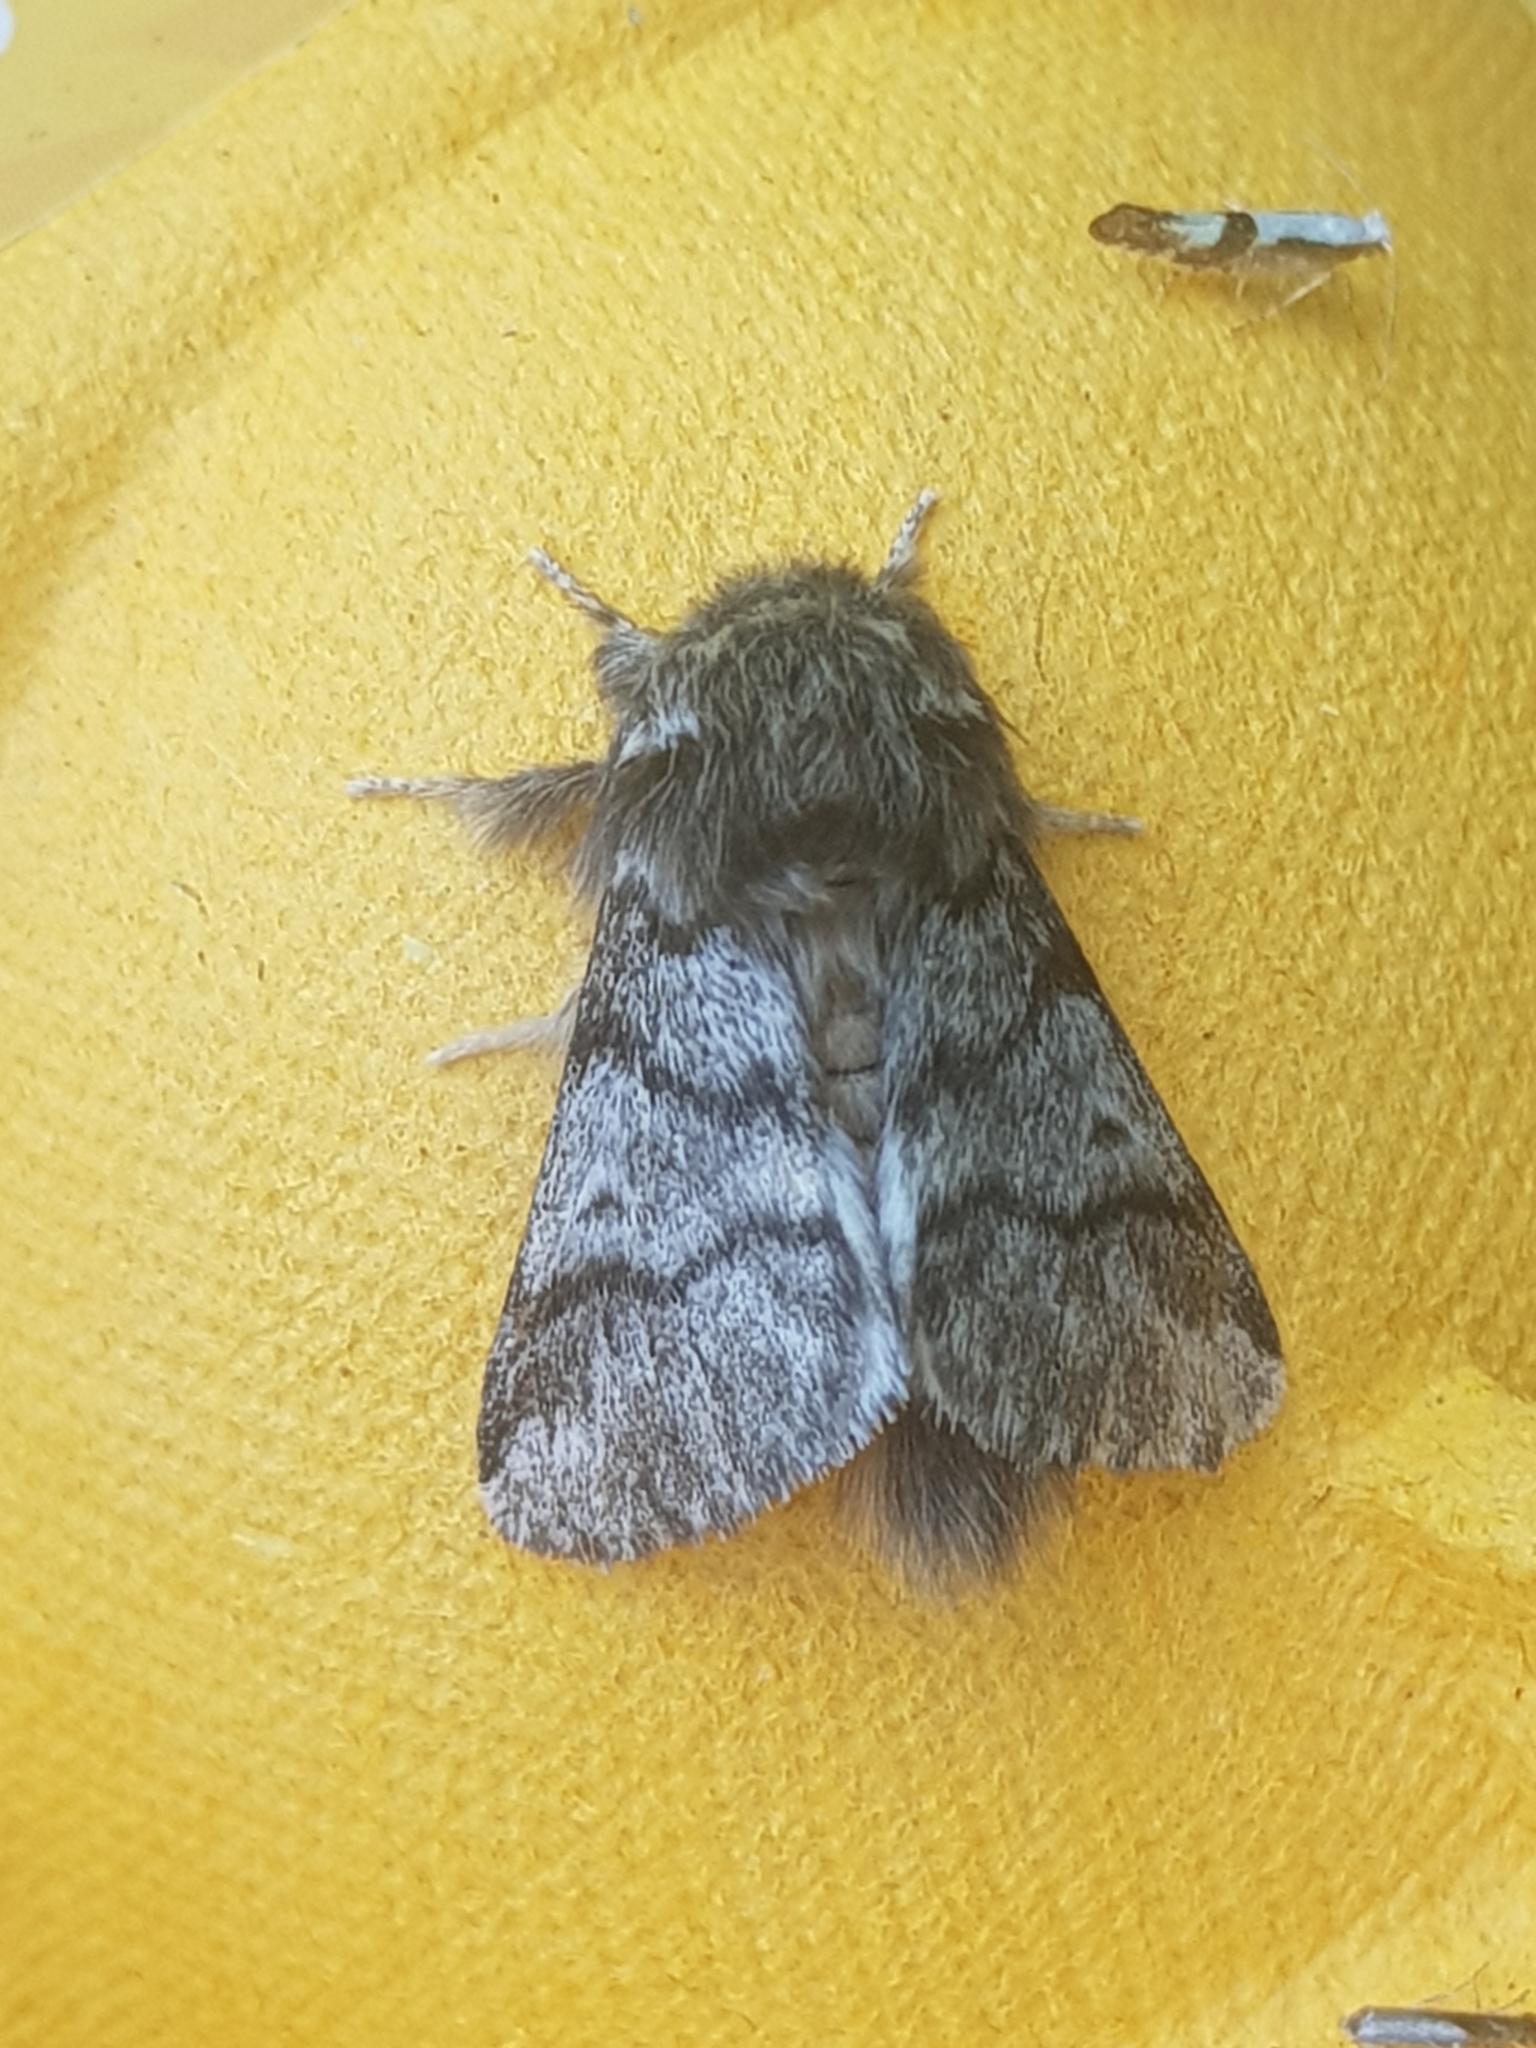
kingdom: Animalia
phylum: Arthropoda
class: Insecta
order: Lepidoptera
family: Notodontidae
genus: Thaumetopoea
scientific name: Thaumetopoea processionea
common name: Oak processionea
